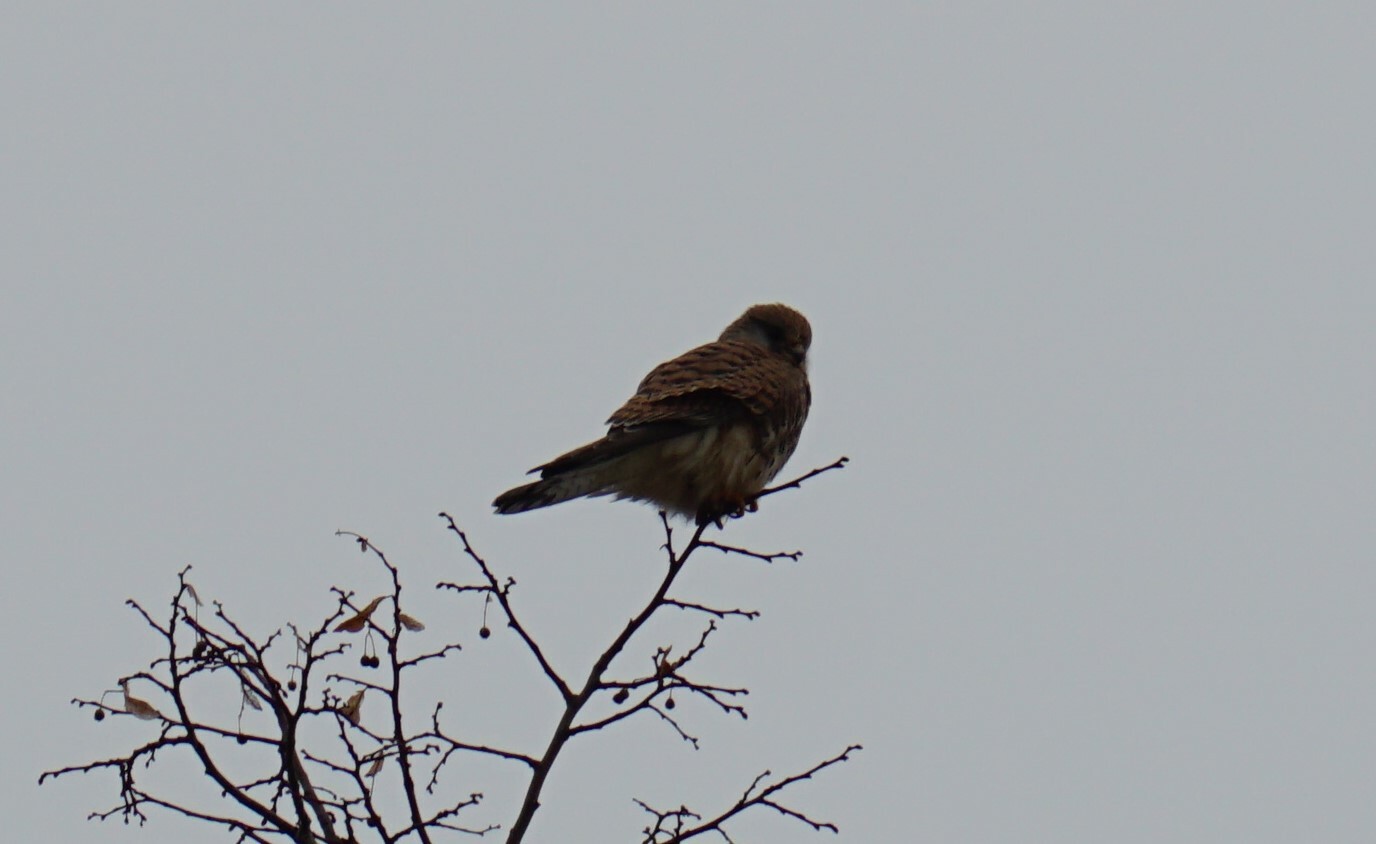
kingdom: Animalia
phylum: Chordata
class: Aves
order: Falconiformes
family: Falconidae
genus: Falco
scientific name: Falco tinnunculus
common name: Common kestrel
